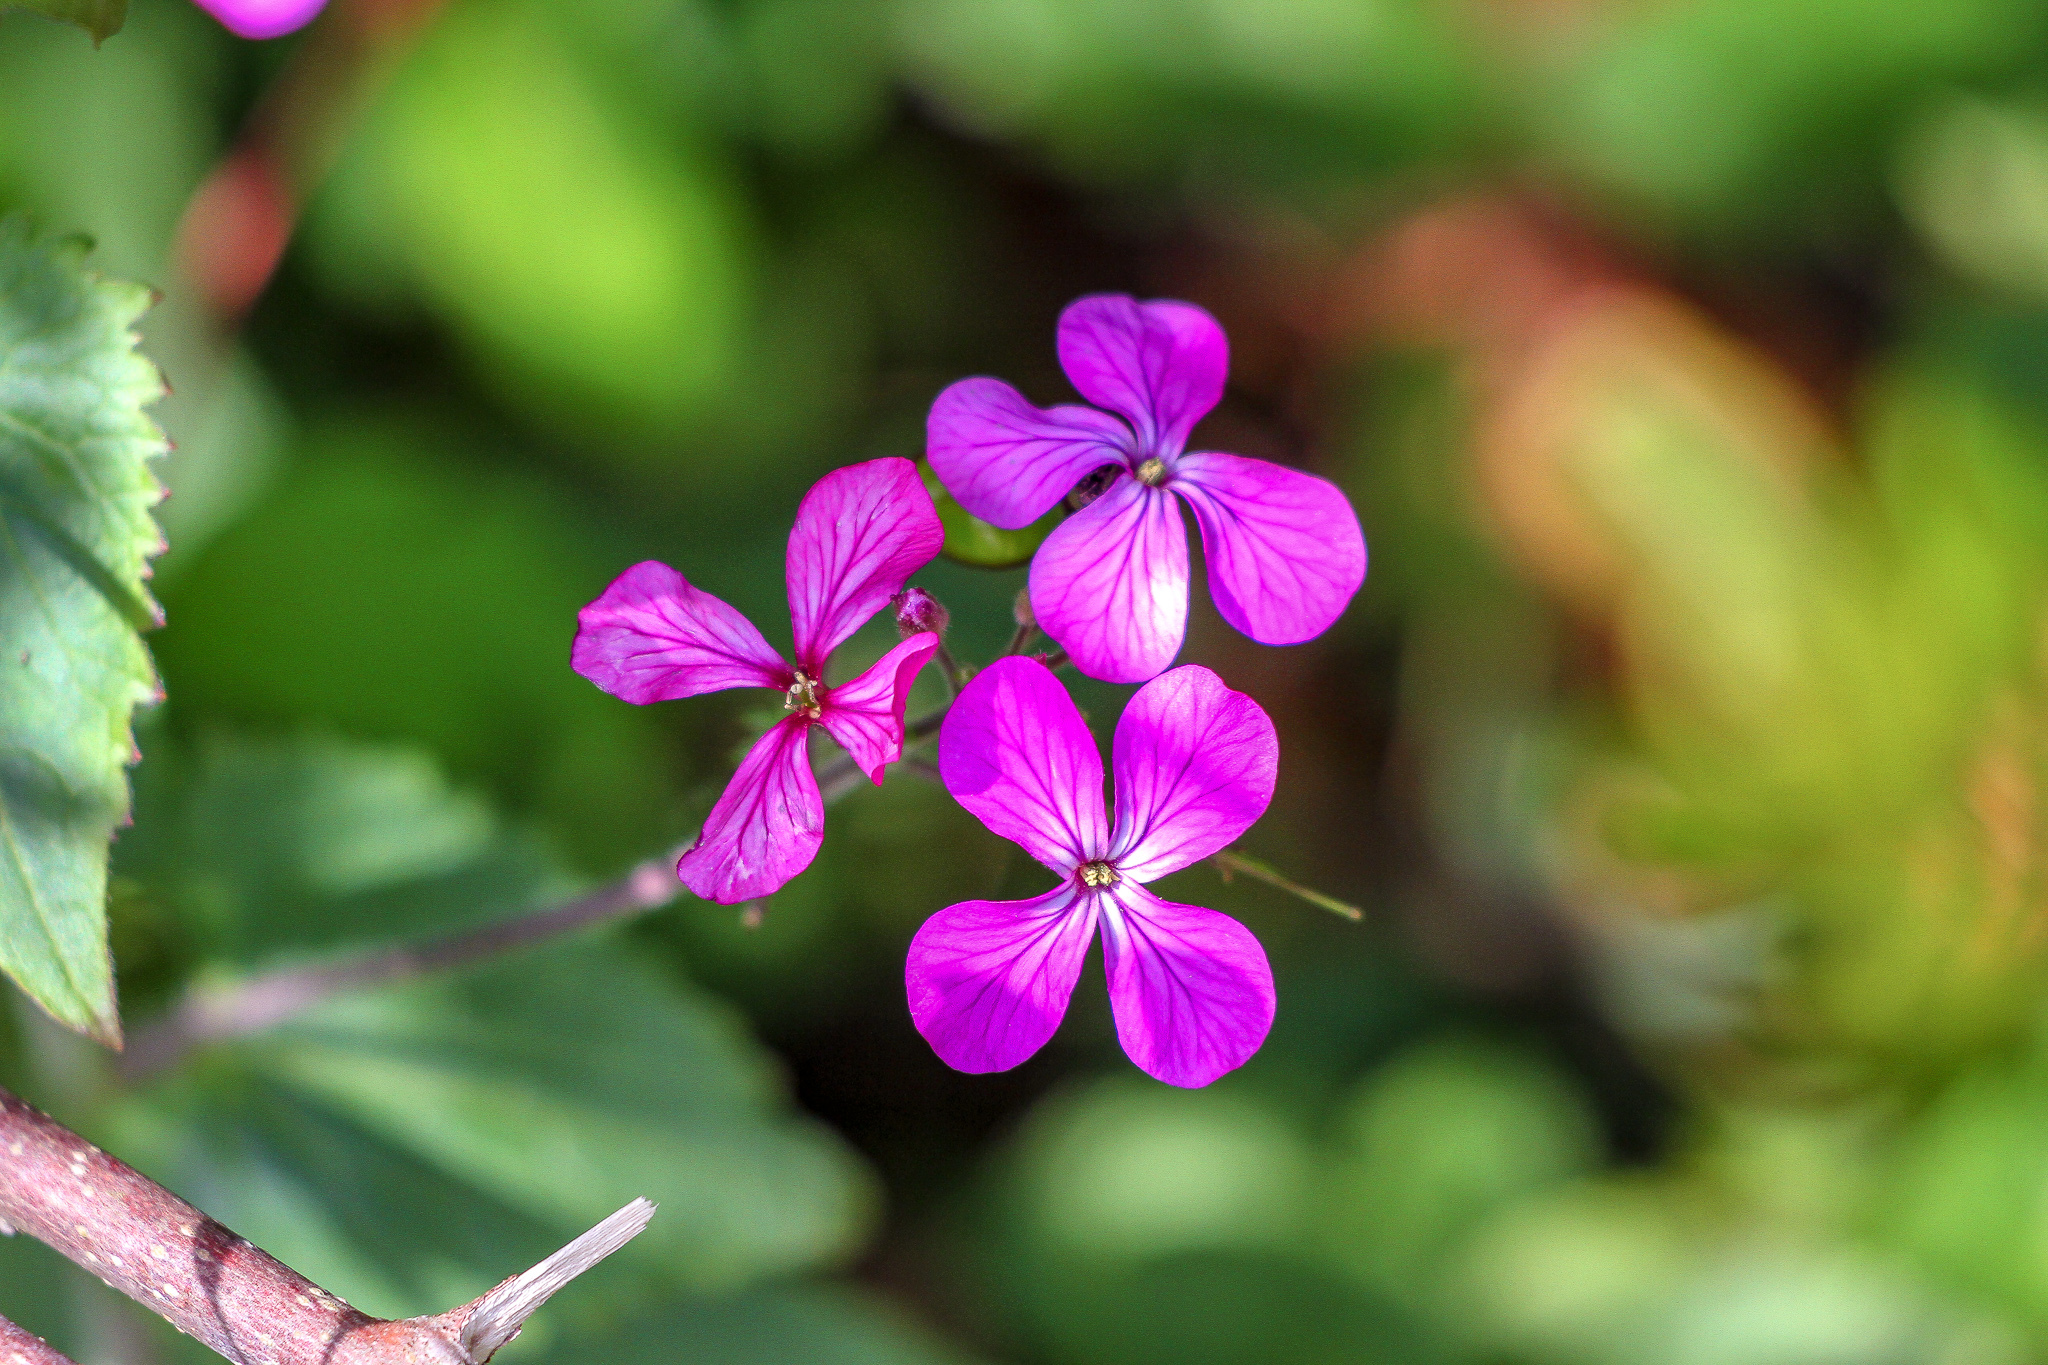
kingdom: Plantae
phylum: Tracheophyta
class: Magnoliopsida
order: Brassicales
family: Brassicaceae
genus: Lunaria
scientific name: Lunaria annua
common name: Honesty
